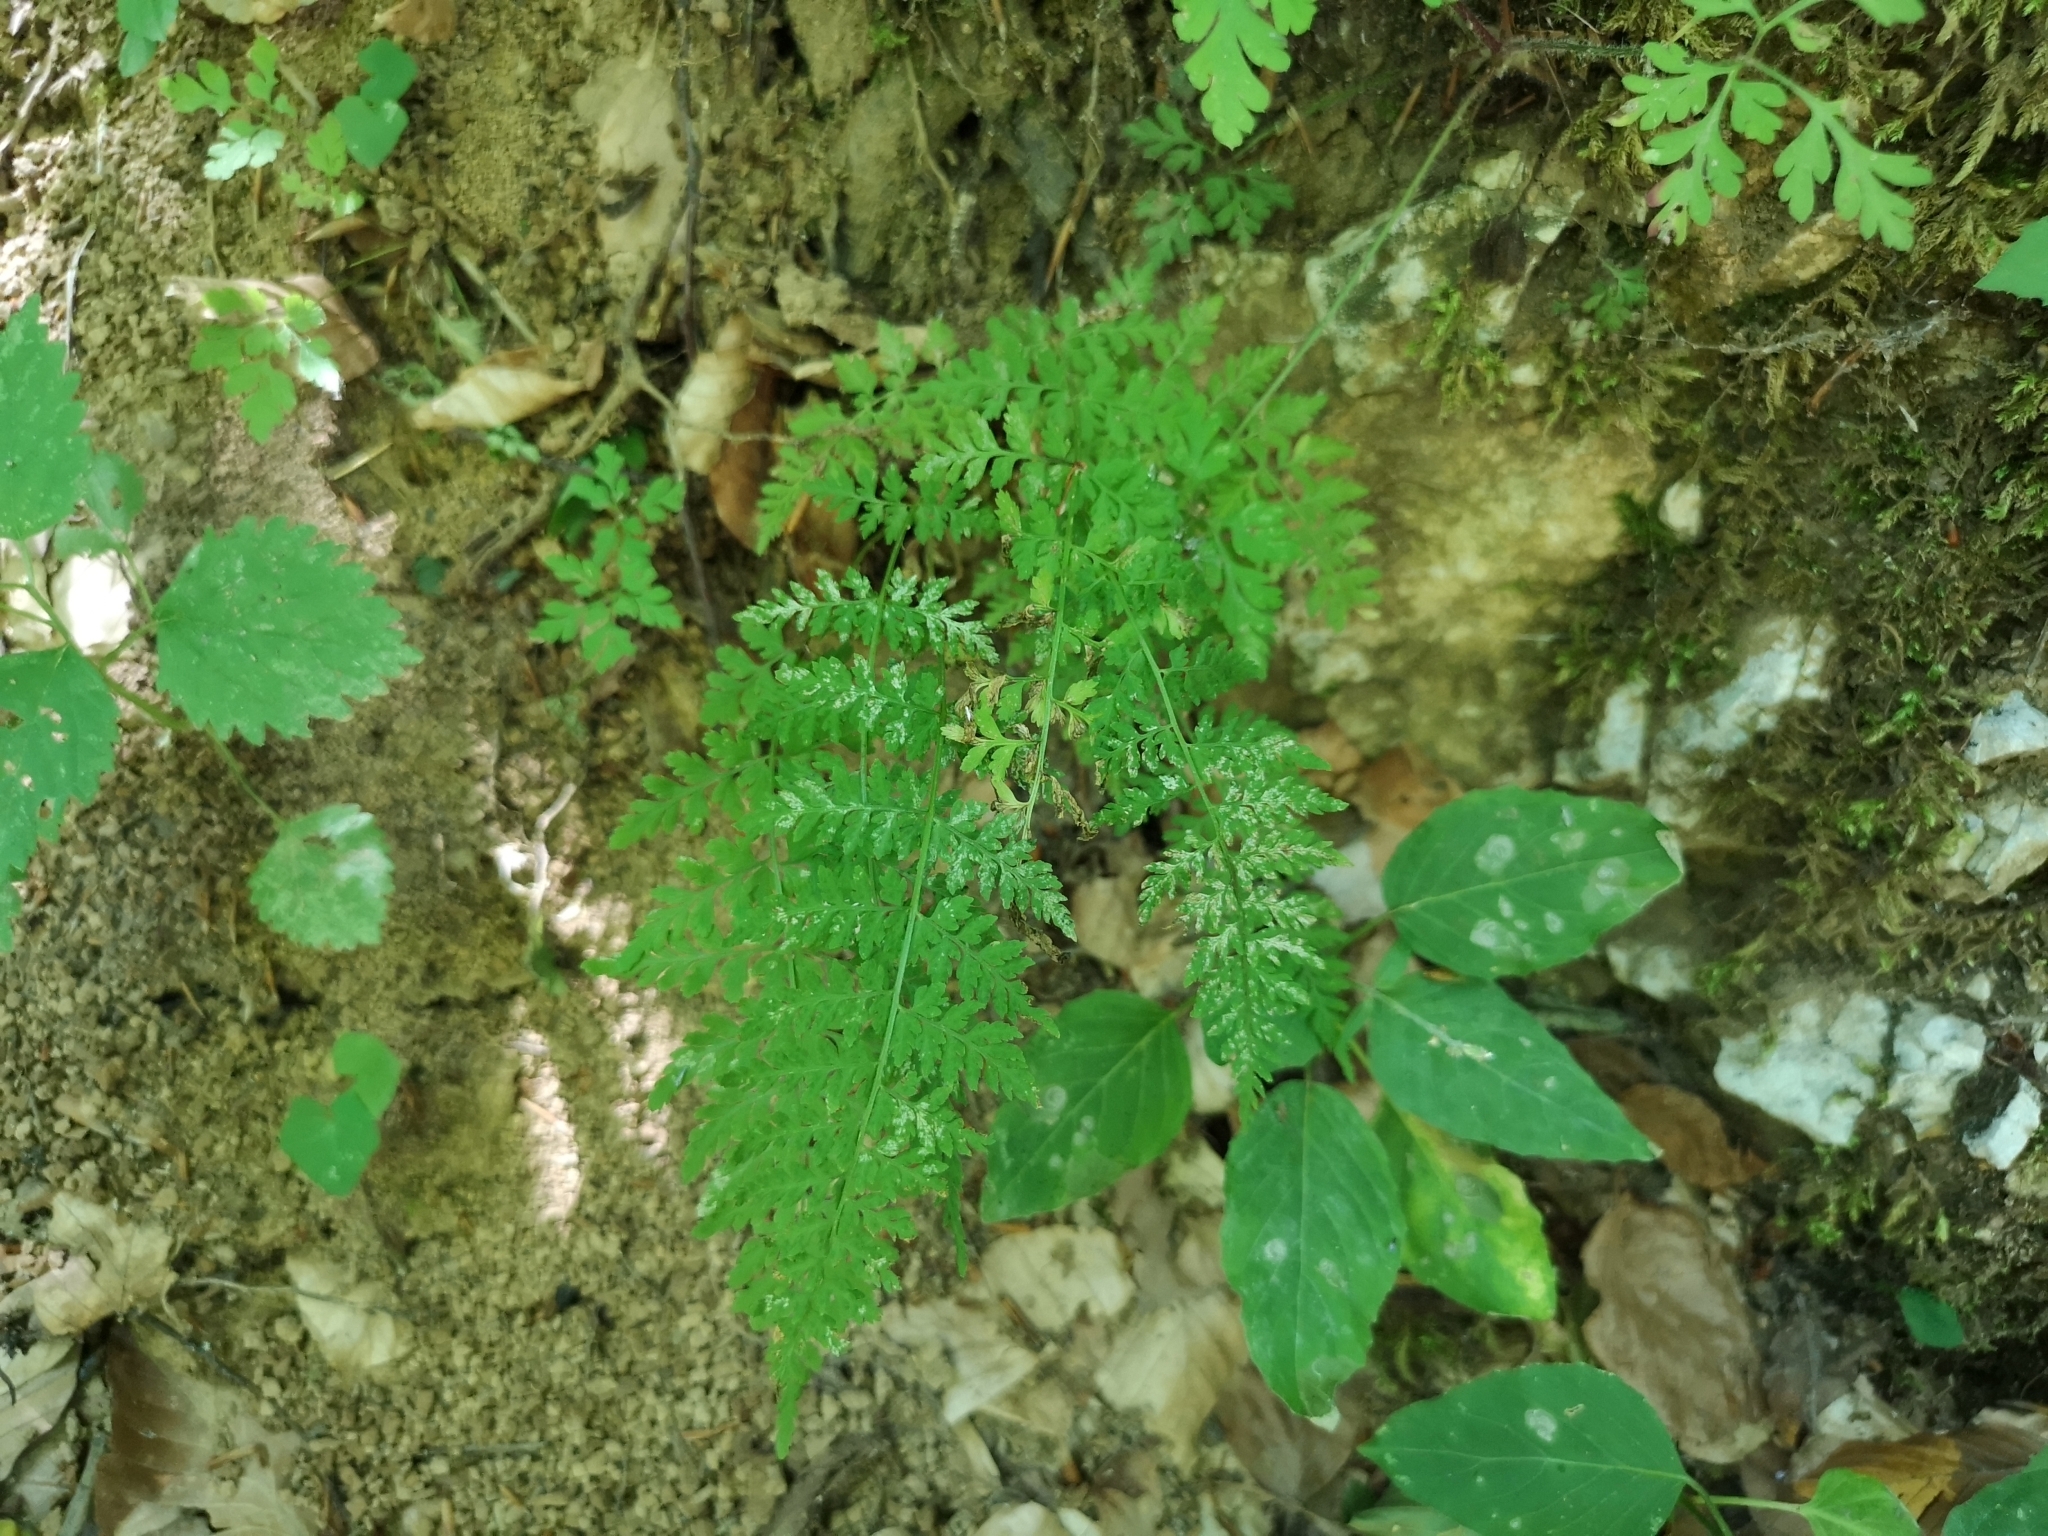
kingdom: Plantae
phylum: Tracheophyta
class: Polypodiopsida
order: Polypodiales
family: Cystopteridaceae
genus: Cystopteris
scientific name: Cystopteris fragilis
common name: Brittle bladder fern
